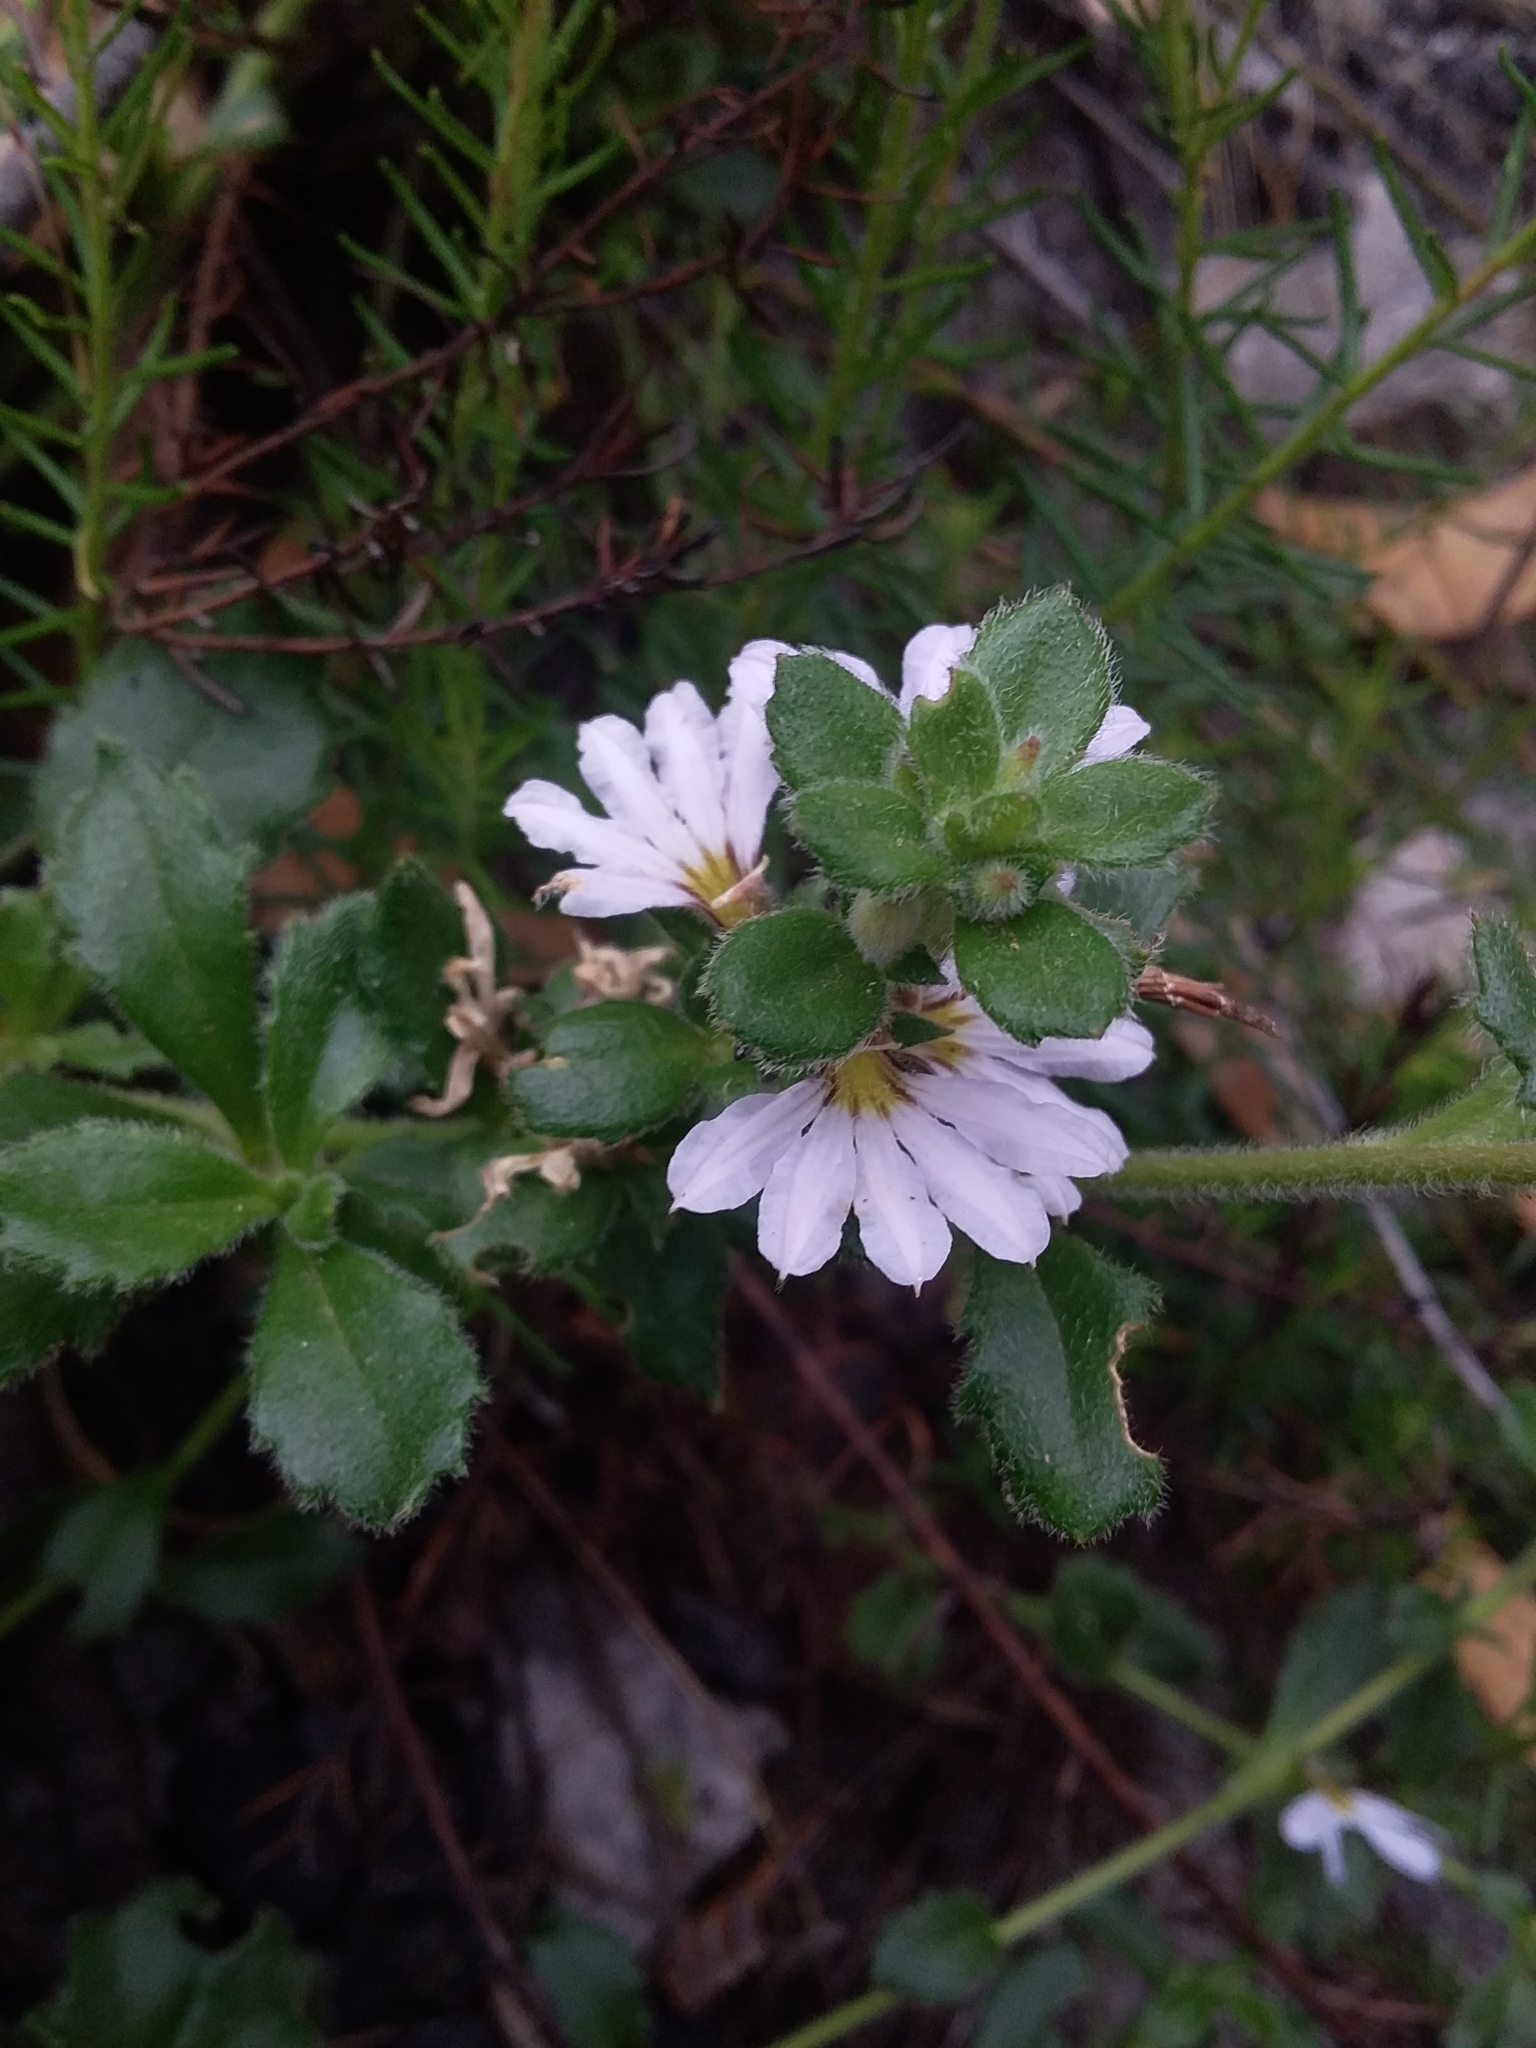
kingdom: Plantae
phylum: Tracheophyta
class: Magnoliopsida
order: Asterales
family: Goodeniaceae
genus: Scaevola
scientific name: Scaevola albida
